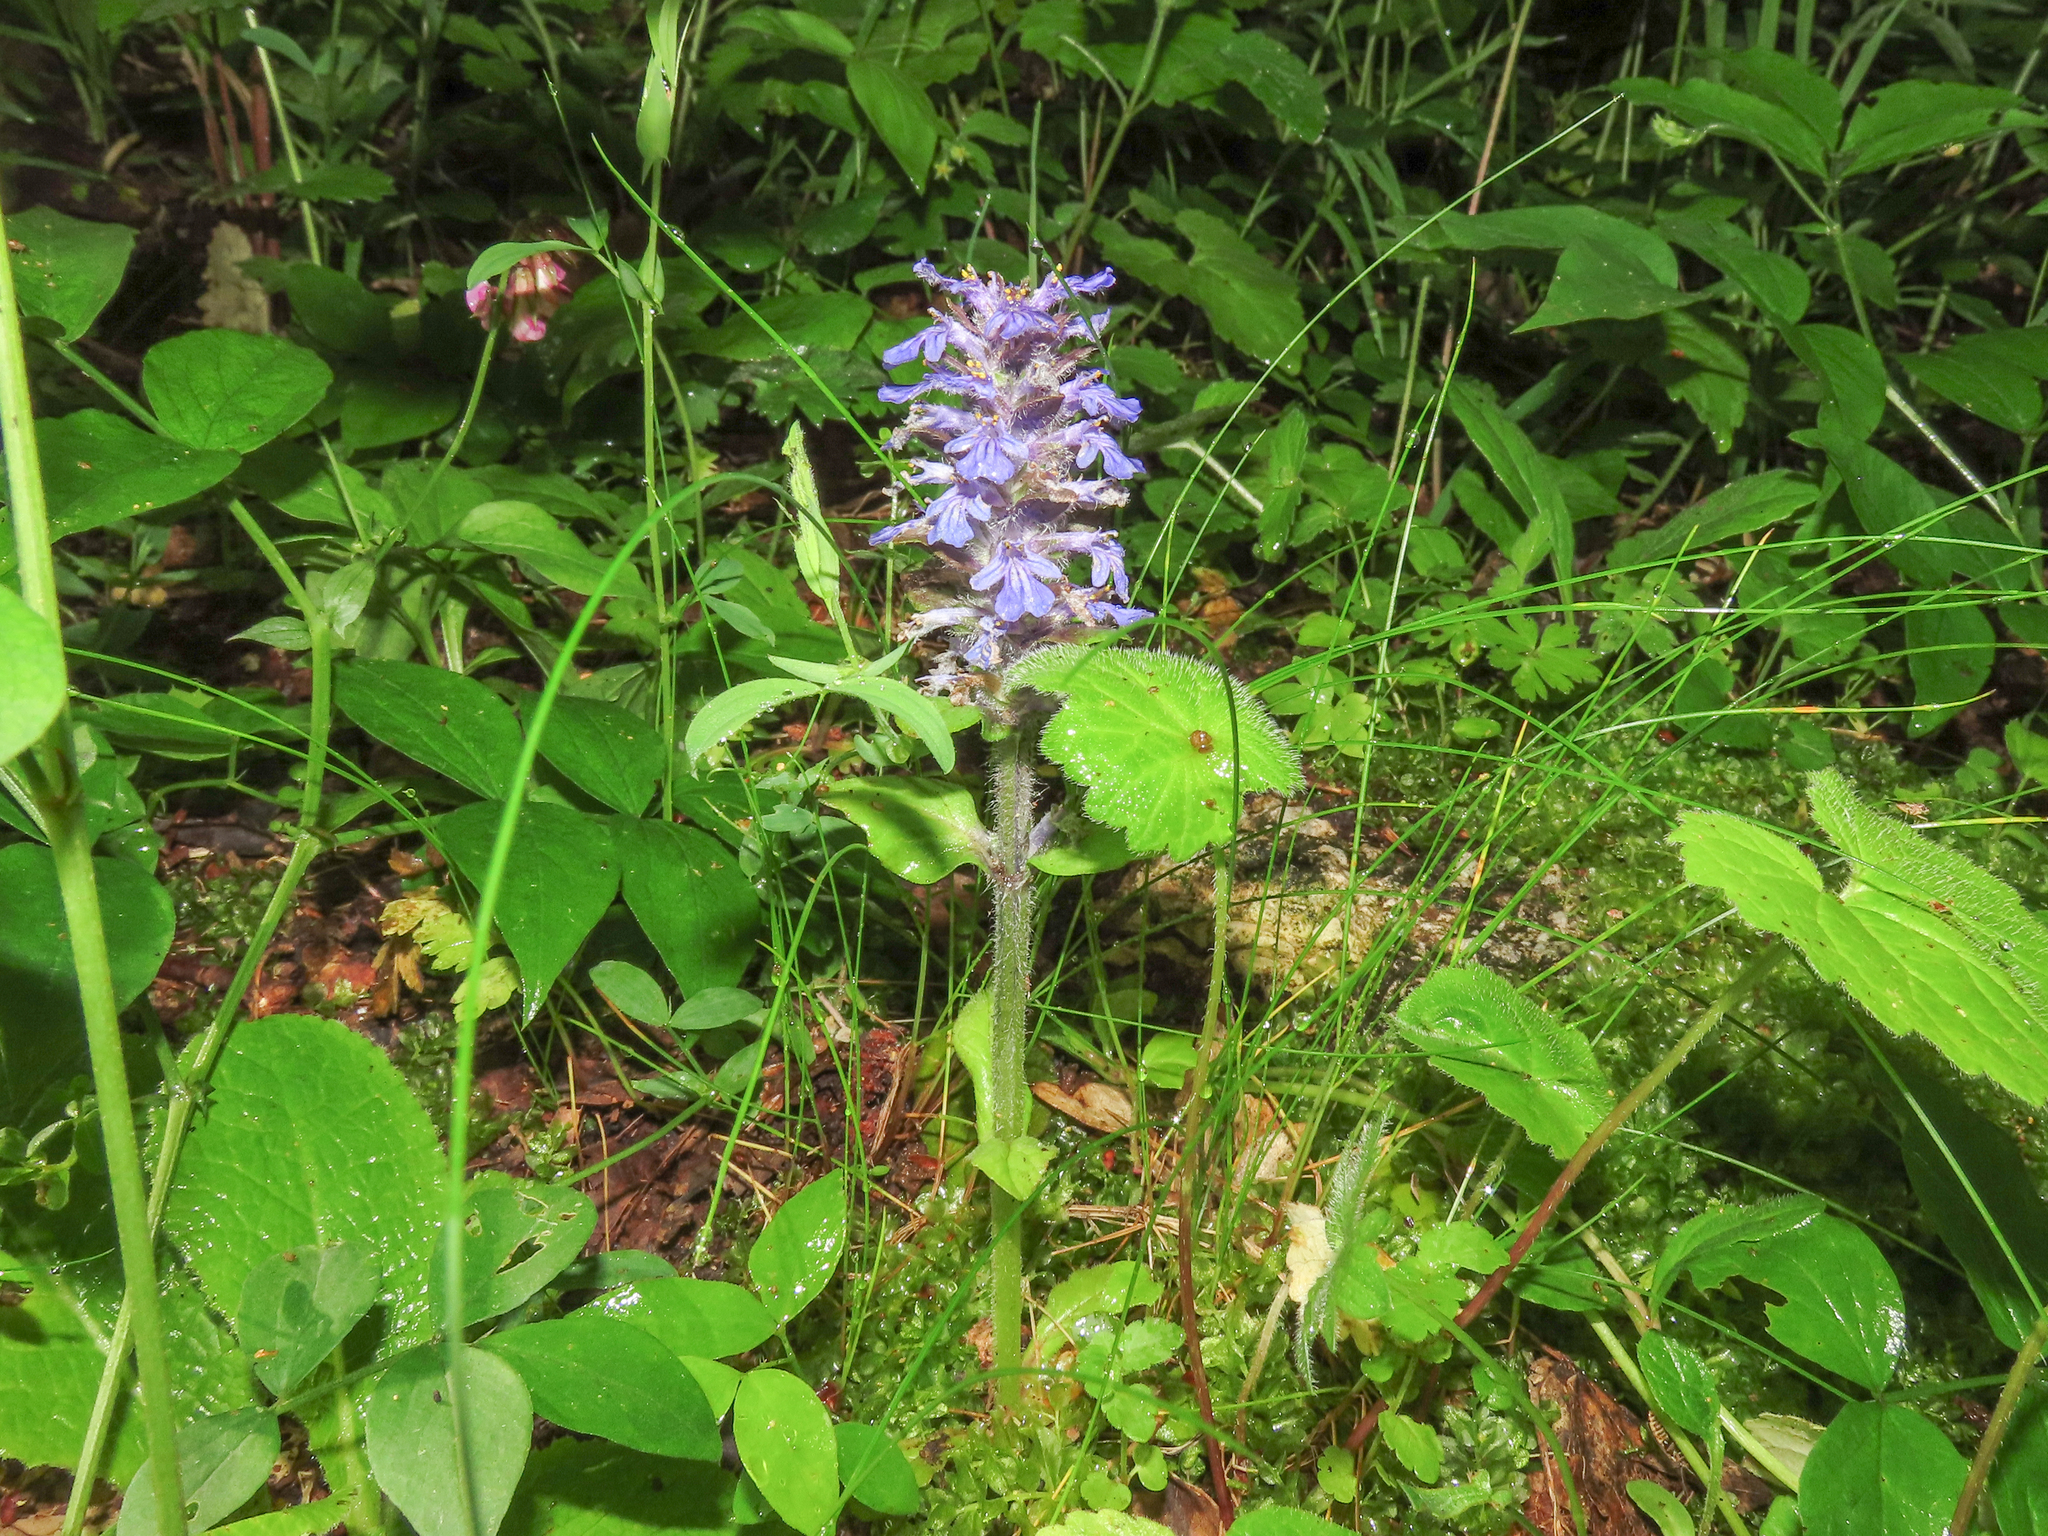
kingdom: Plantae
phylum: Tracheophyta
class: Magnoliopsida
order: Lamiales
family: Lamiaceae
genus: Ajuga
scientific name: Ajuga reptans
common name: Bugle
